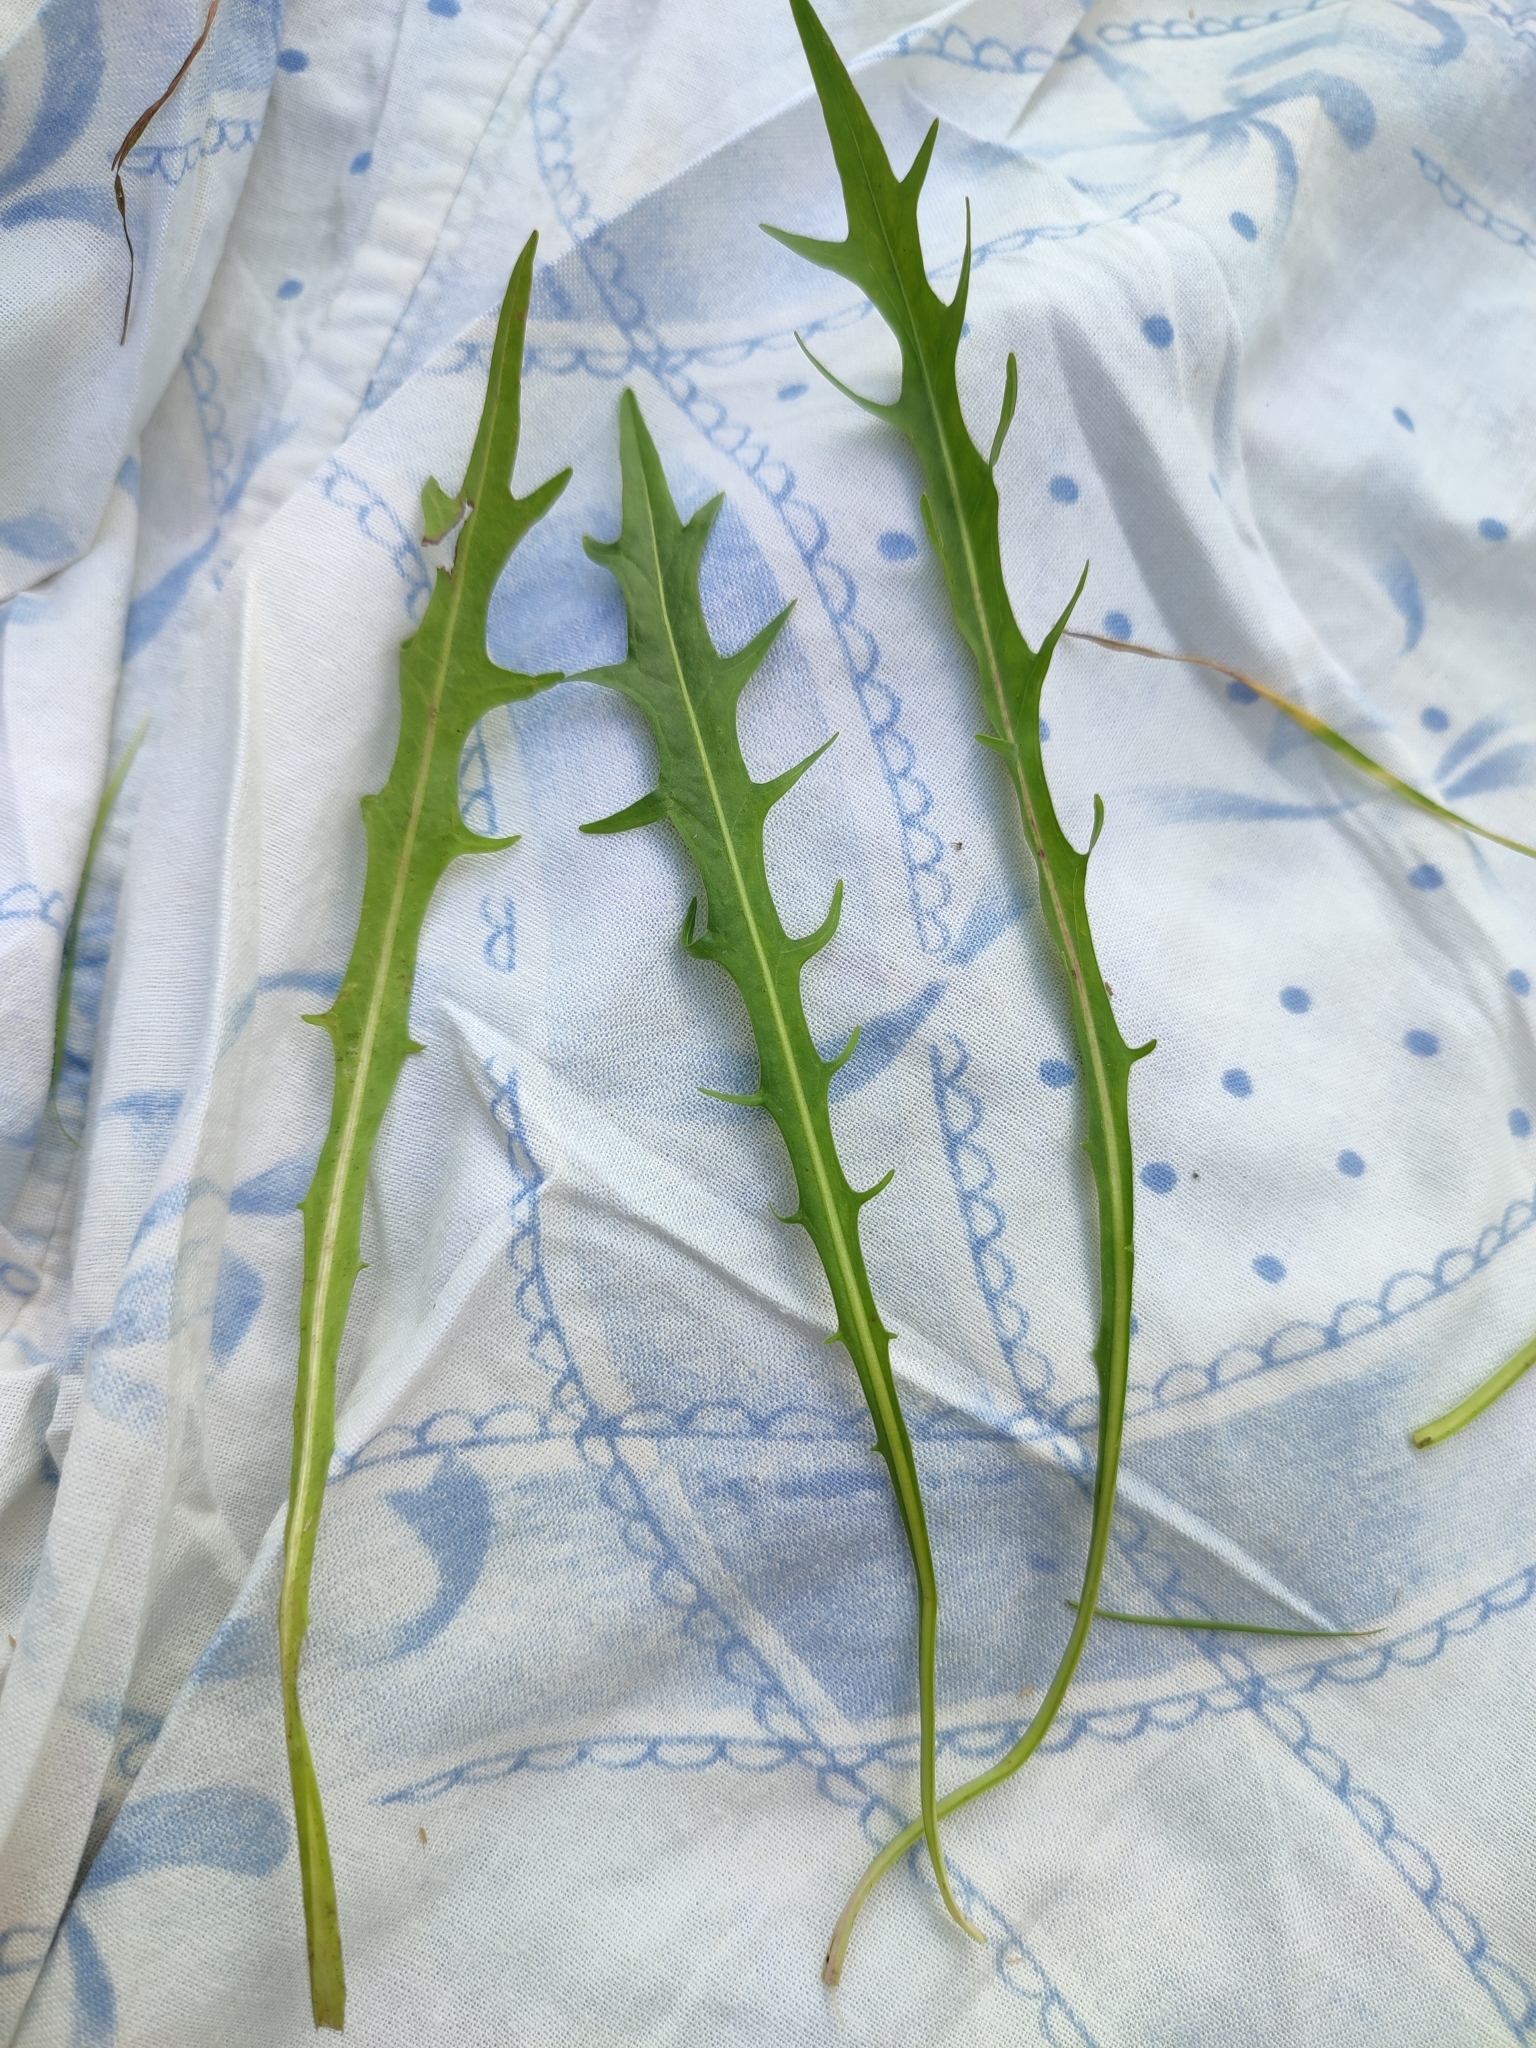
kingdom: Plantae
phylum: Tracheophyta
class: Magnoliopsida
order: Asterales
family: Asteraceae
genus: Scorzoneroides
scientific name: Scorzoneroides autumnalis
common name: Autumn hawkbit
